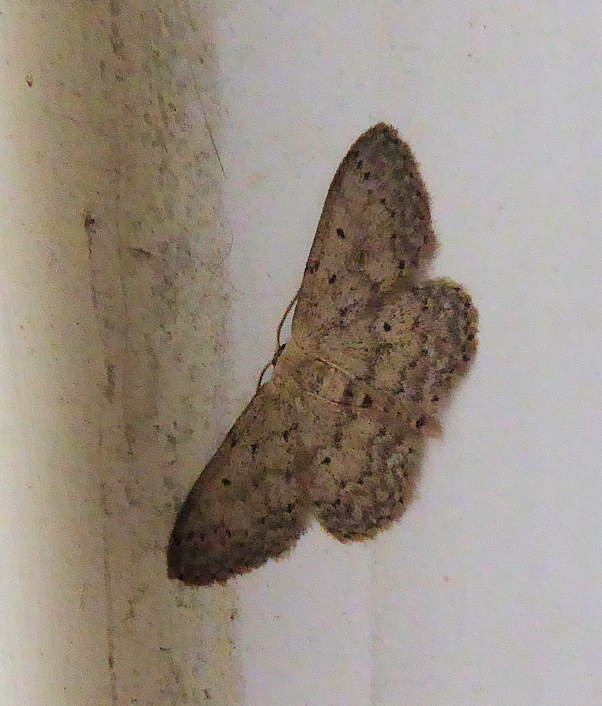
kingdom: Animalia
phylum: Arthropoda
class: Insecta
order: Lepidoptera
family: Geometridae
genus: Idaea
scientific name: Idaea seriata
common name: Small dusty wave
